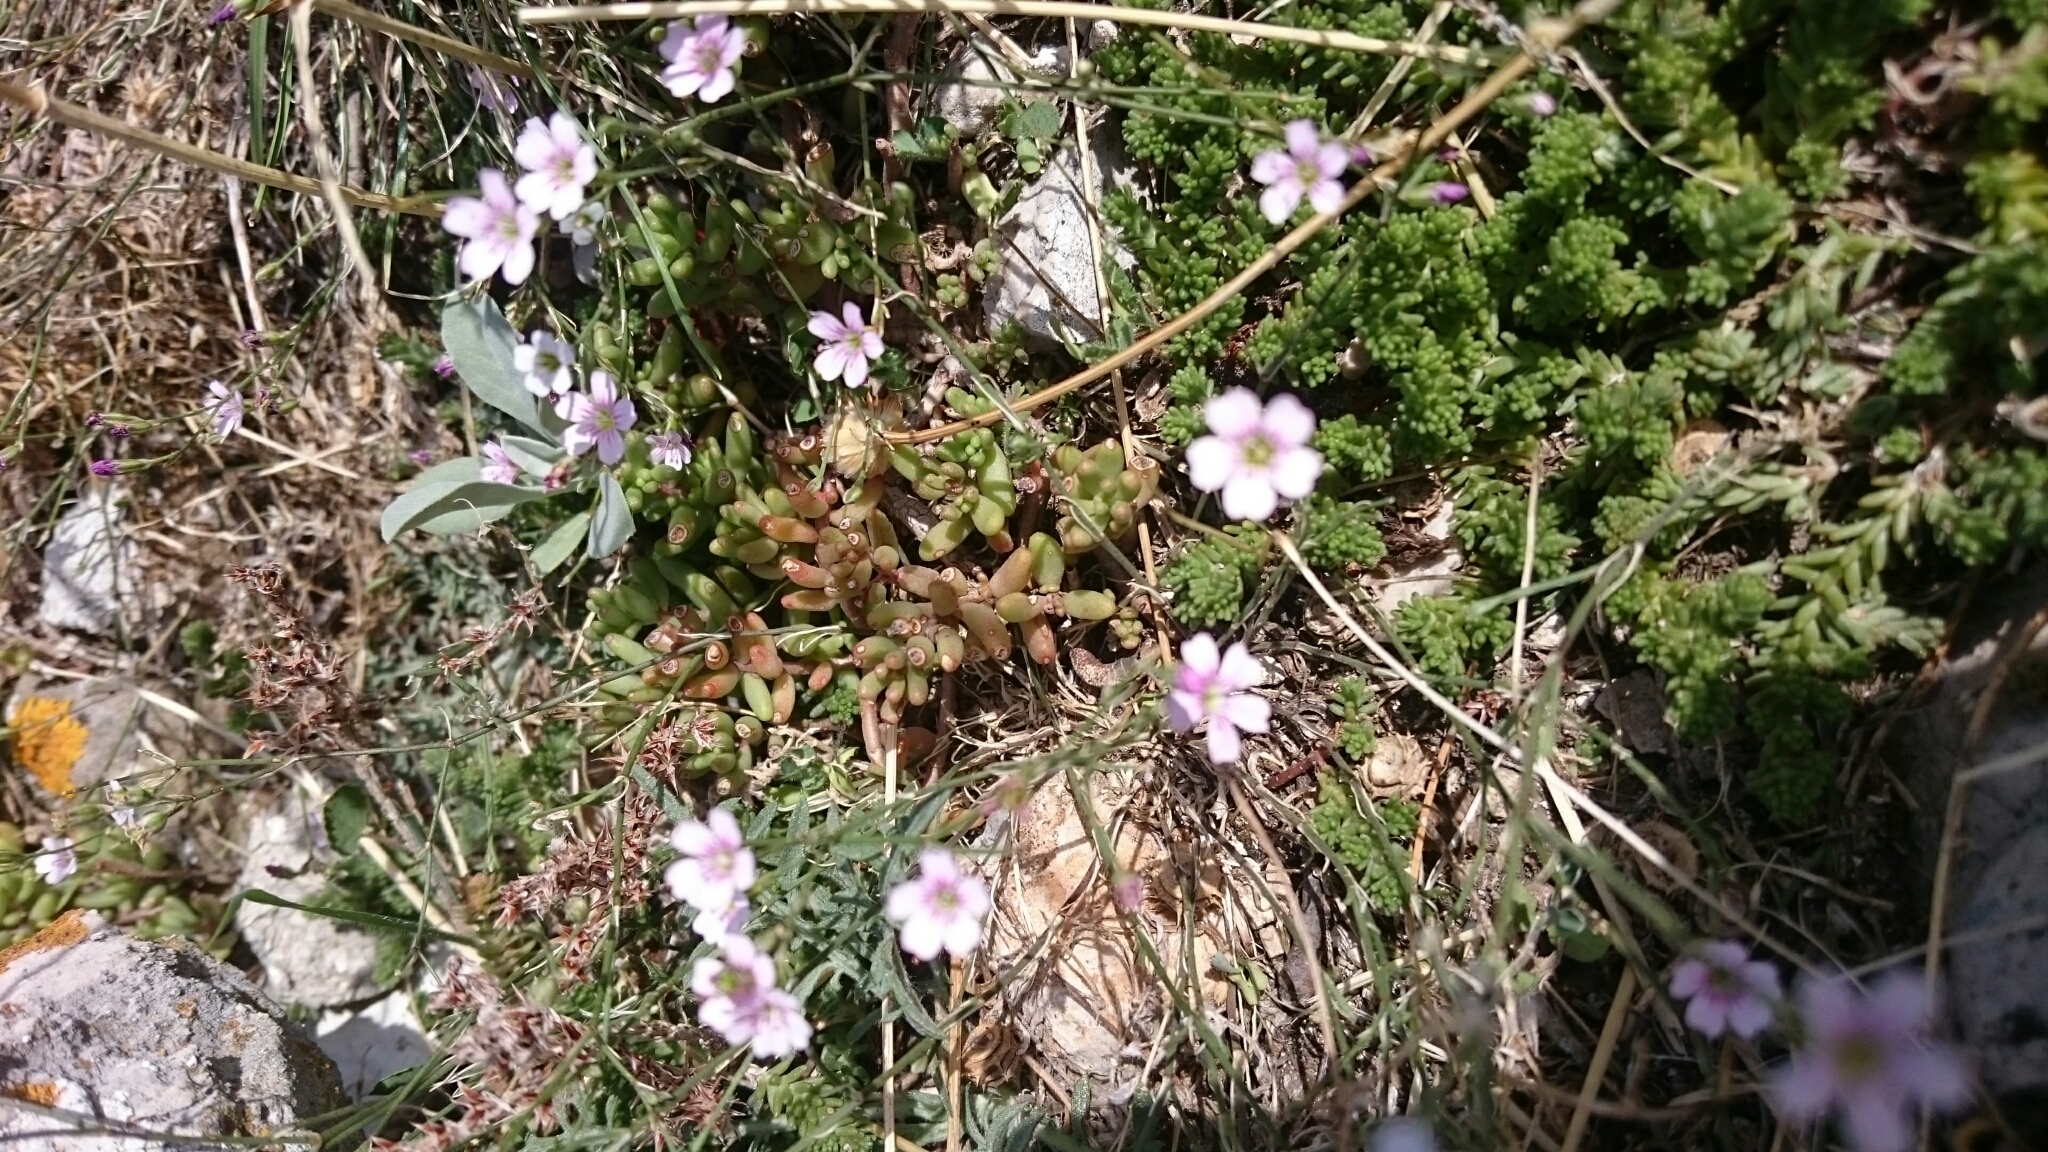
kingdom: Plantae
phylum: Tracheophyta
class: Magnoliopsida
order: Caryophyllales
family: Caryophyllaceae
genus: Petrorhagia
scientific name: Petrorhagia saxifraga
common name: Tunicflower
